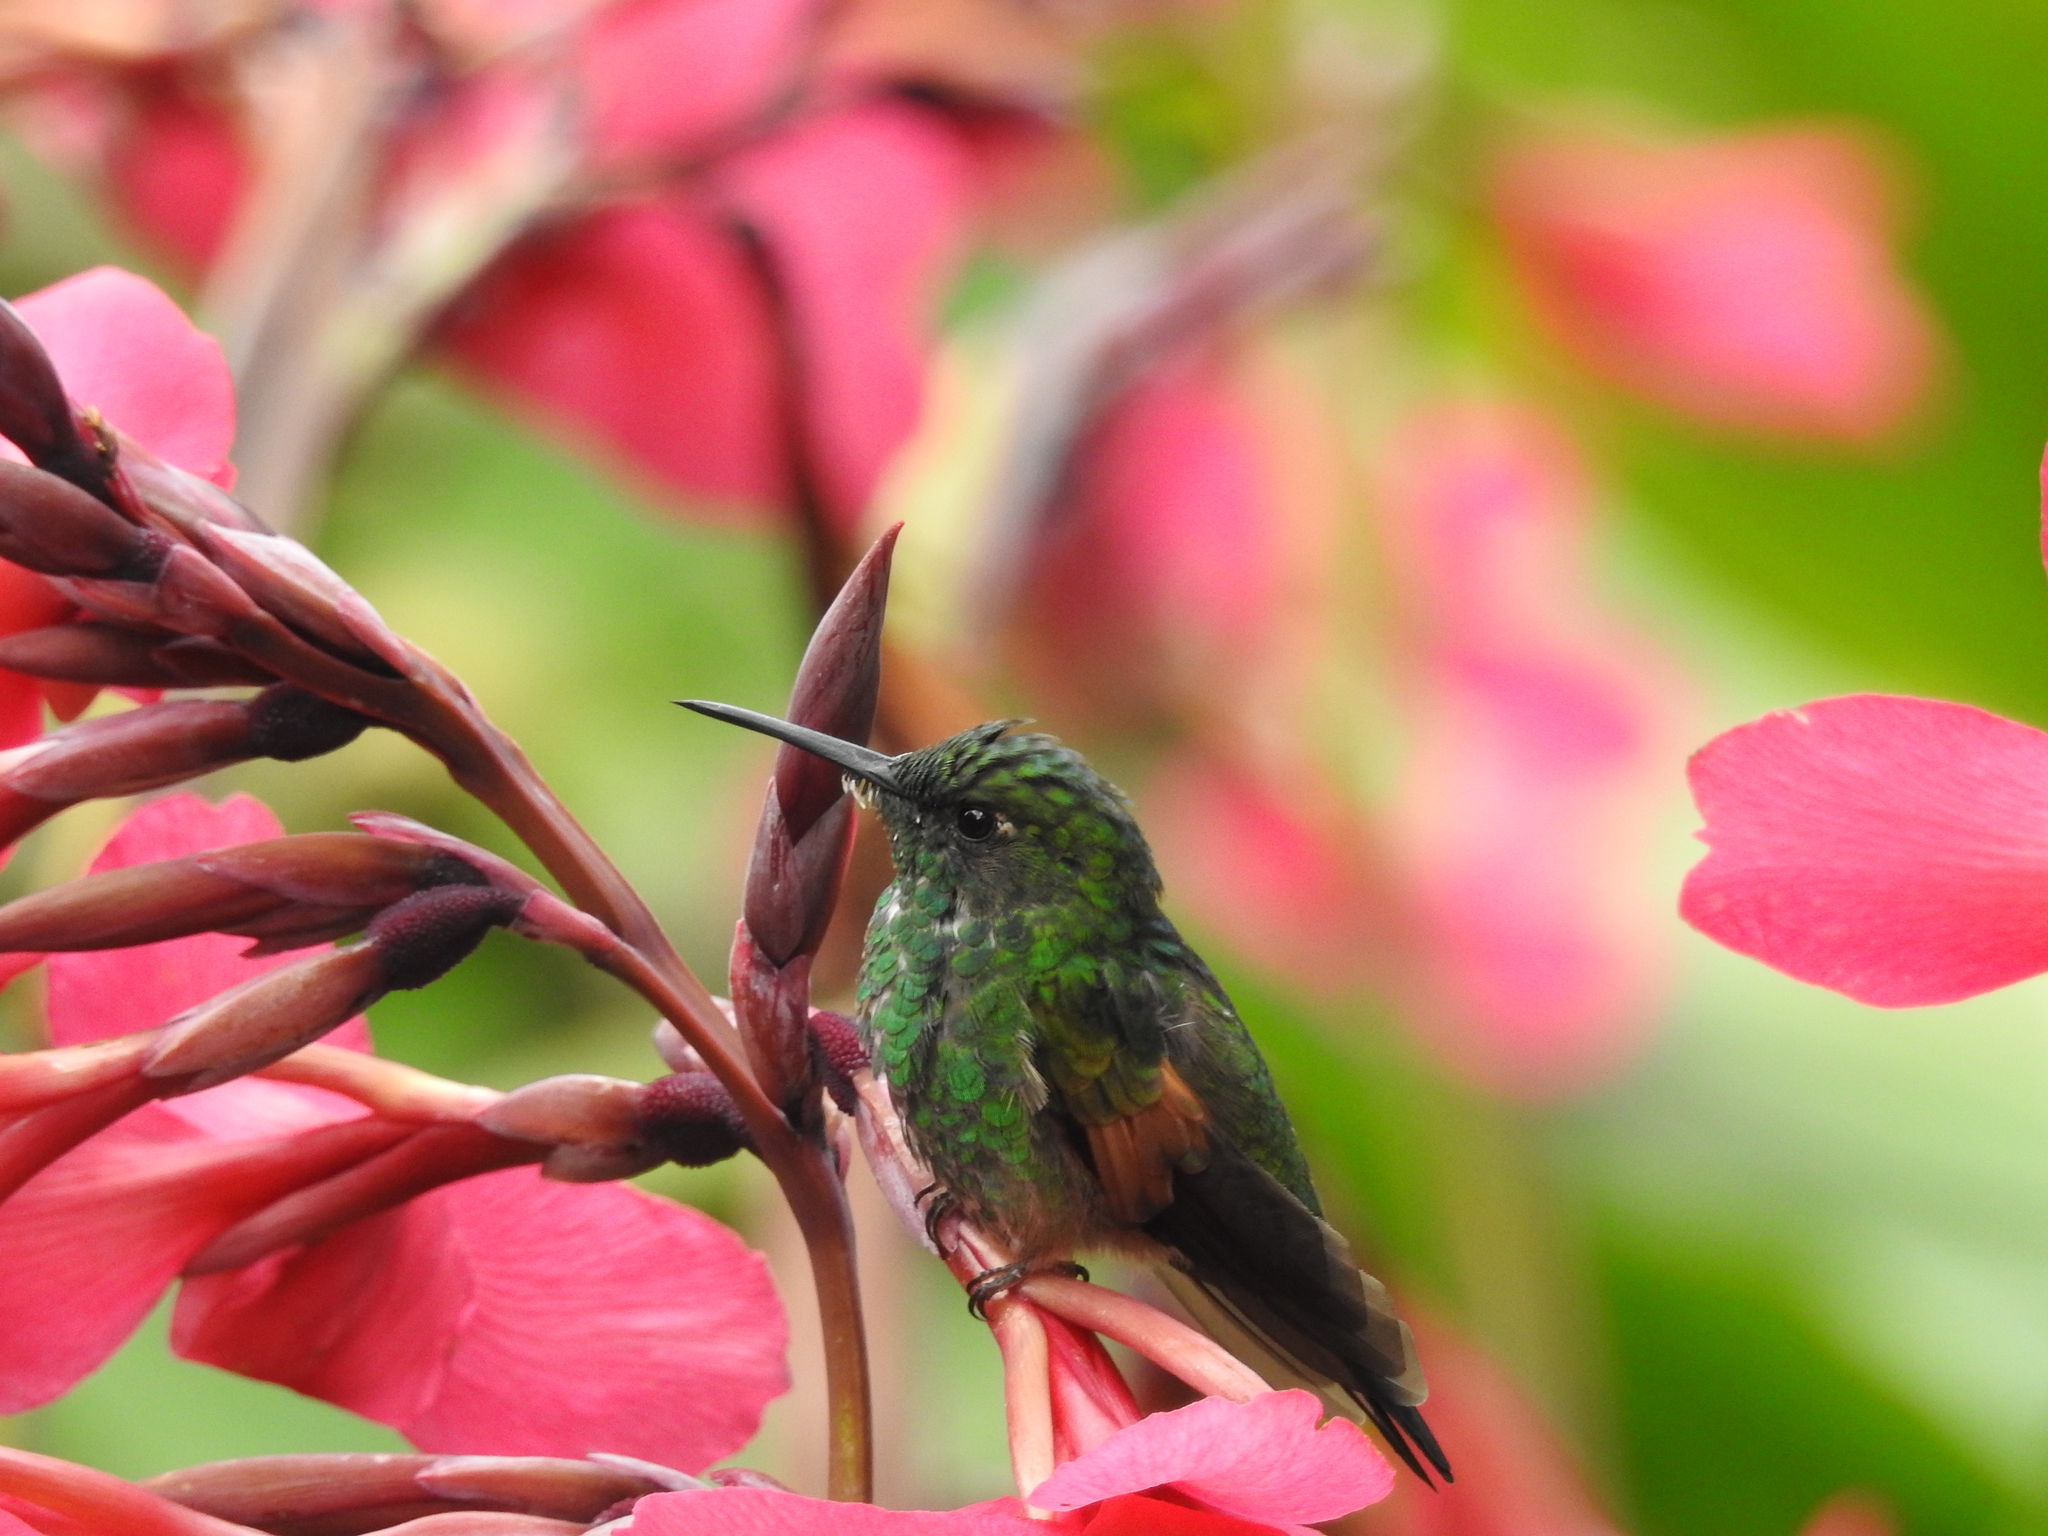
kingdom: Animalia
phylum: Chordata
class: Aves
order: Apodiformes
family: Trochilidae
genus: Eupherusa
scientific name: Eupherusa eximia
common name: Stripe-tailed hummingbird
